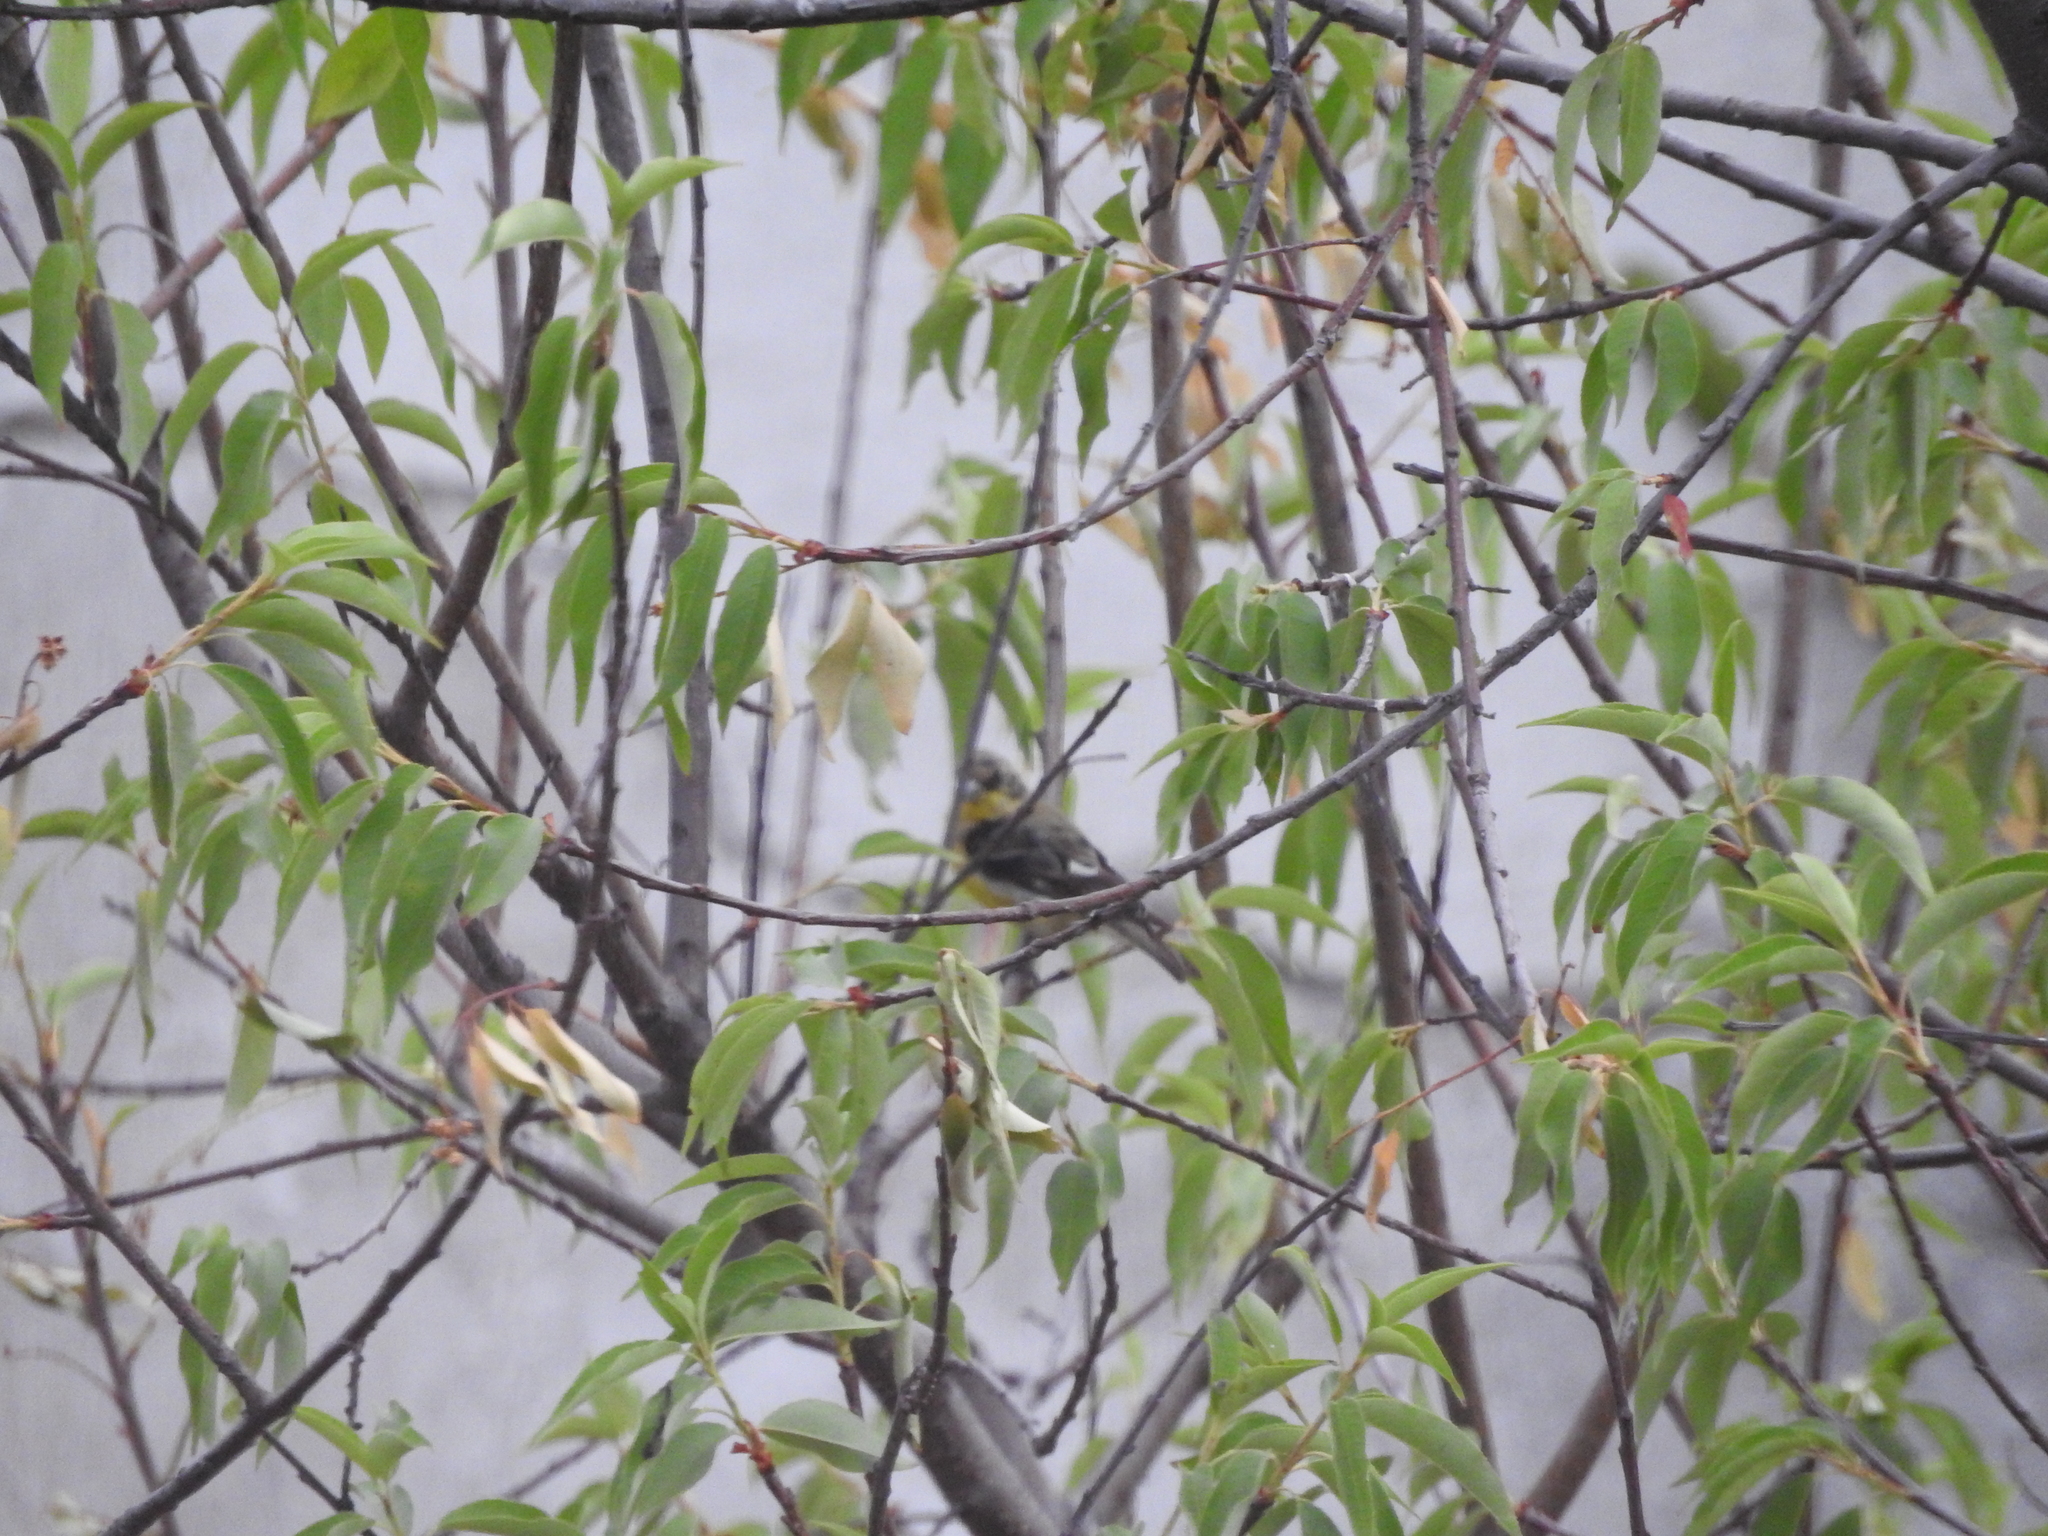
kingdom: Animalia
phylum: Chordata
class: Aves
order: Passeriformes
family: Fringillidae
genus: Spinus
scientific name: Spinus psaltria
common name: Lesser goldfinch
